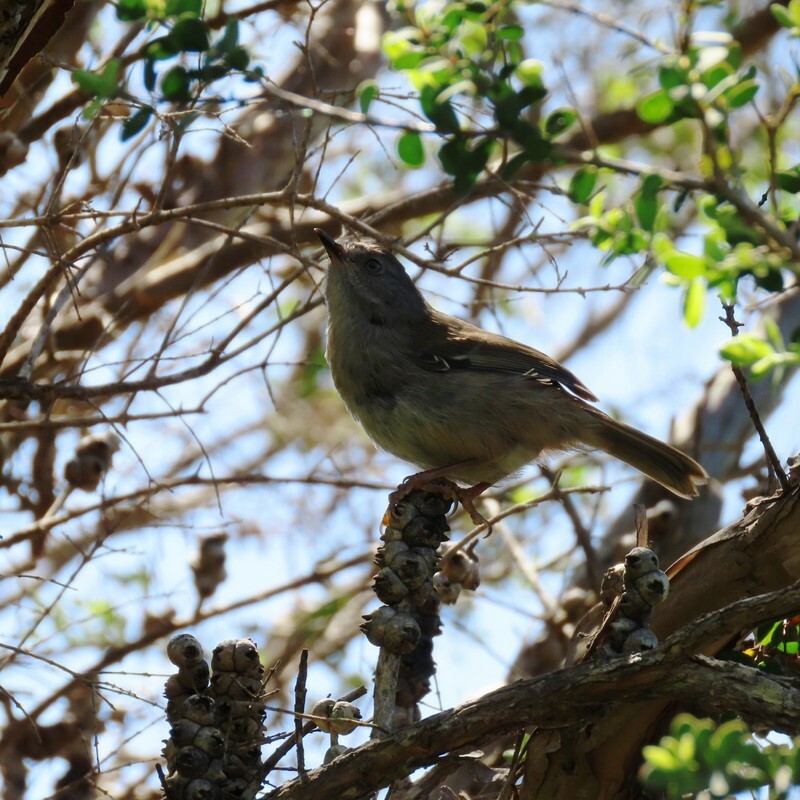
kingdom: Animalia
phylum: Chordata
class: Aves
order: Passeriformes
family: Acanthizidae
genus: Sericornis
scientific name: Sericornis frontalis
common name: White-browed scrubwren
